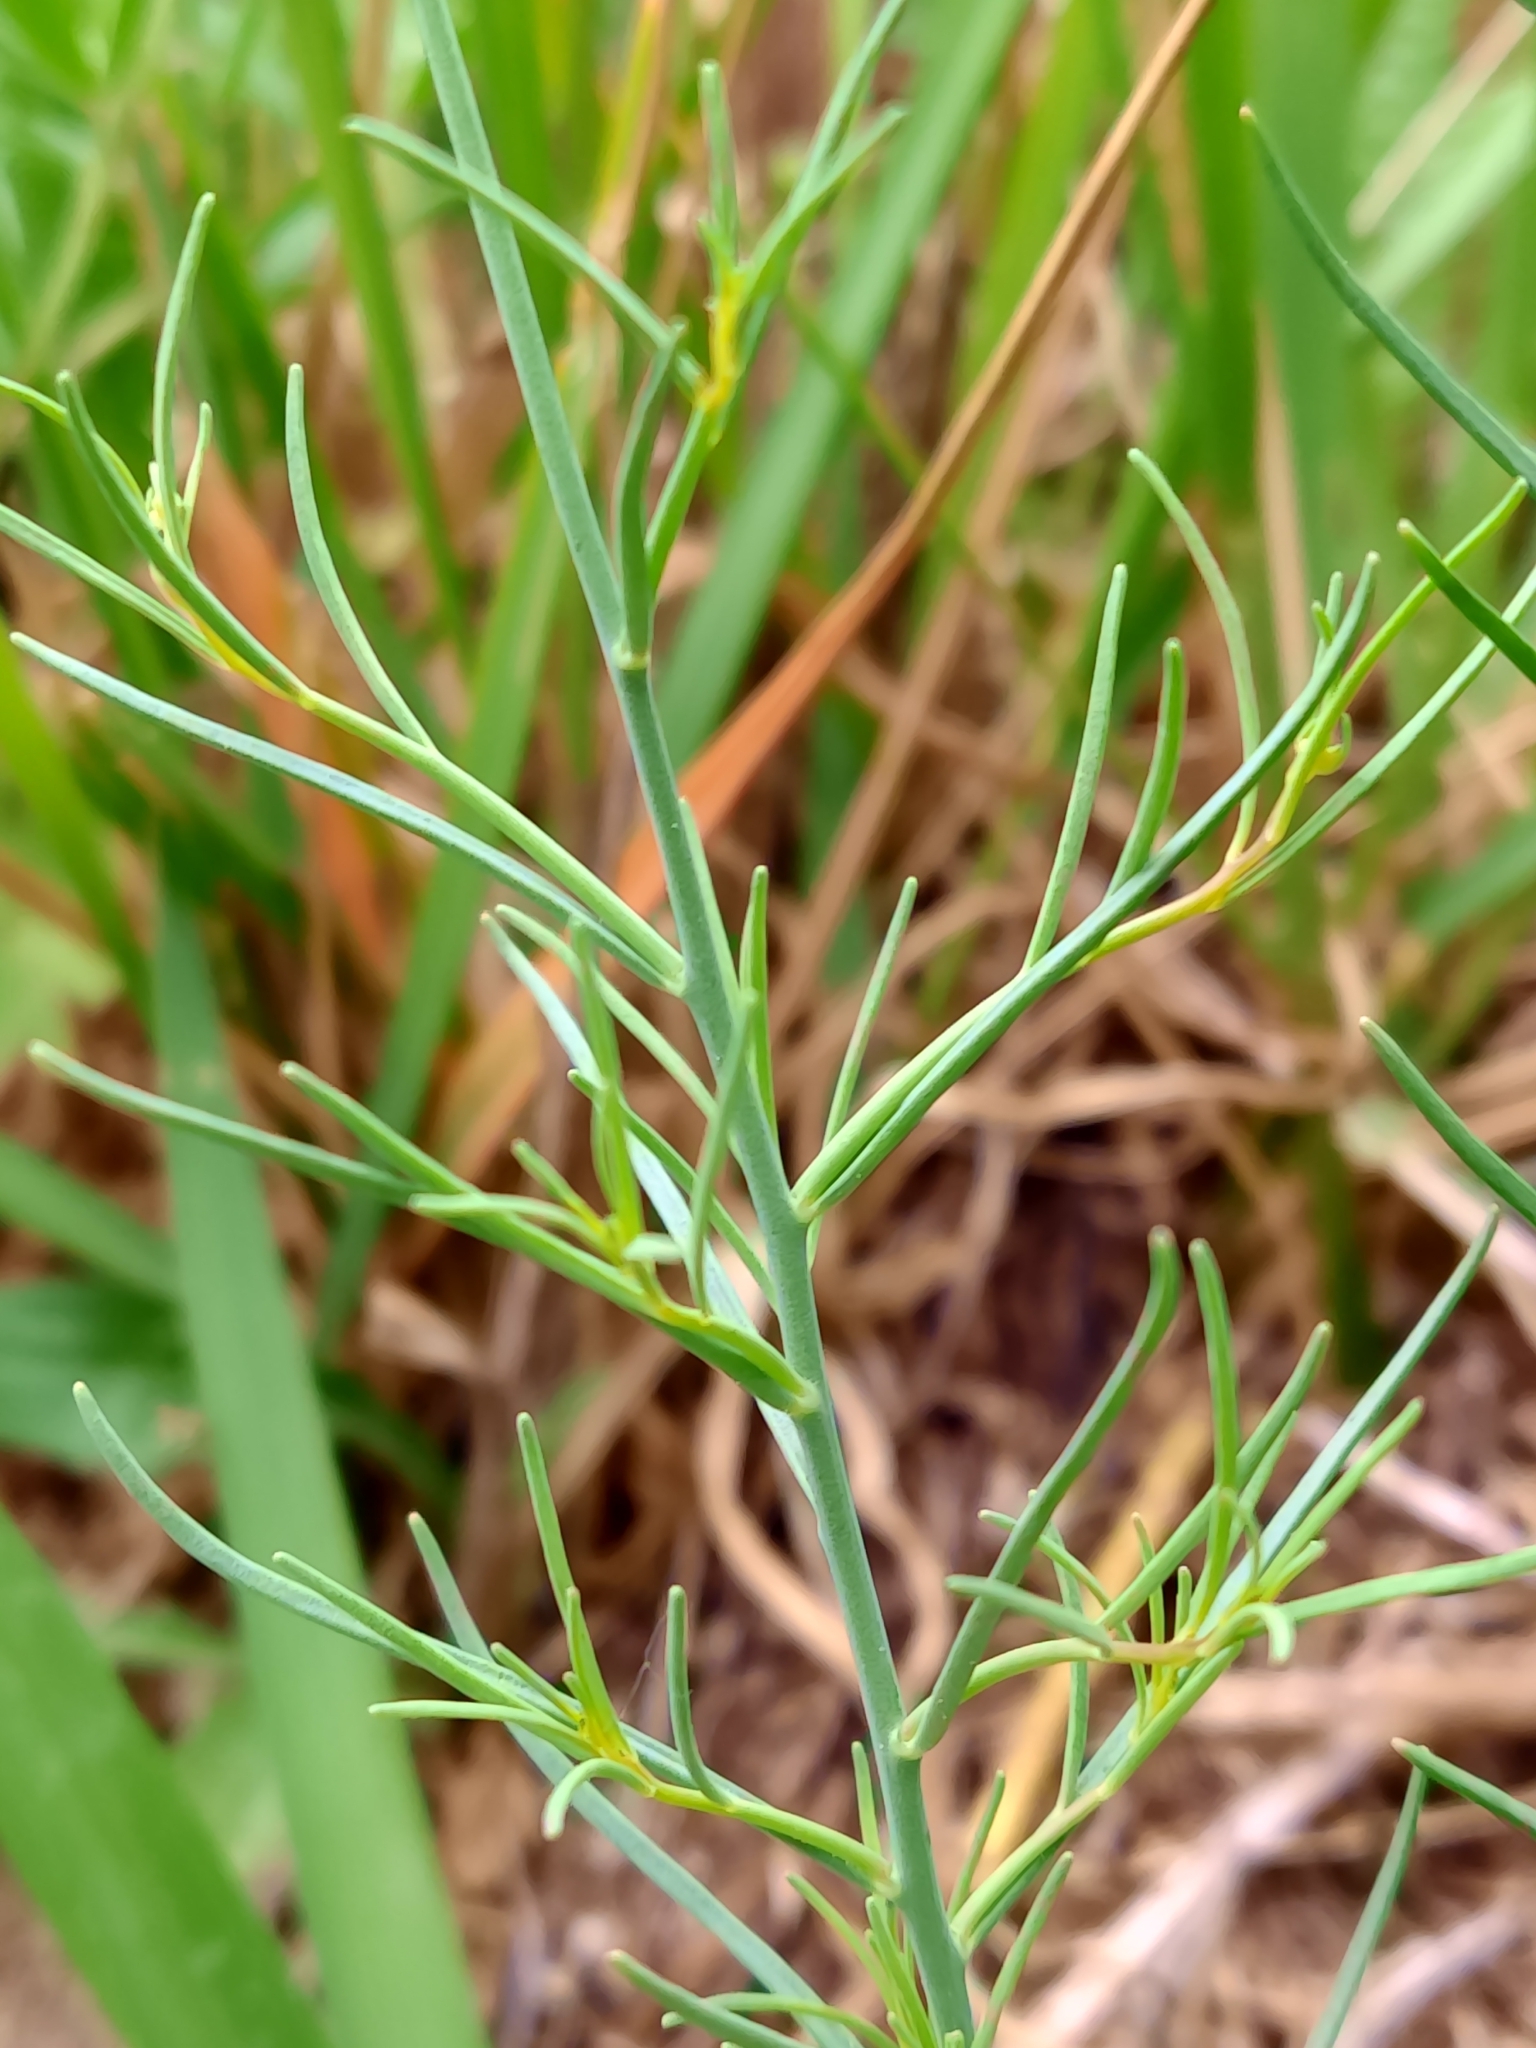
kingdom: Plantae
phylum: Tracheophyta
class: Magnoliopsida
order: Lamiales
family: Plantaginaceae
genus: Linaria
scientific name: Linaria spartea
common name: Ballast toadflax
